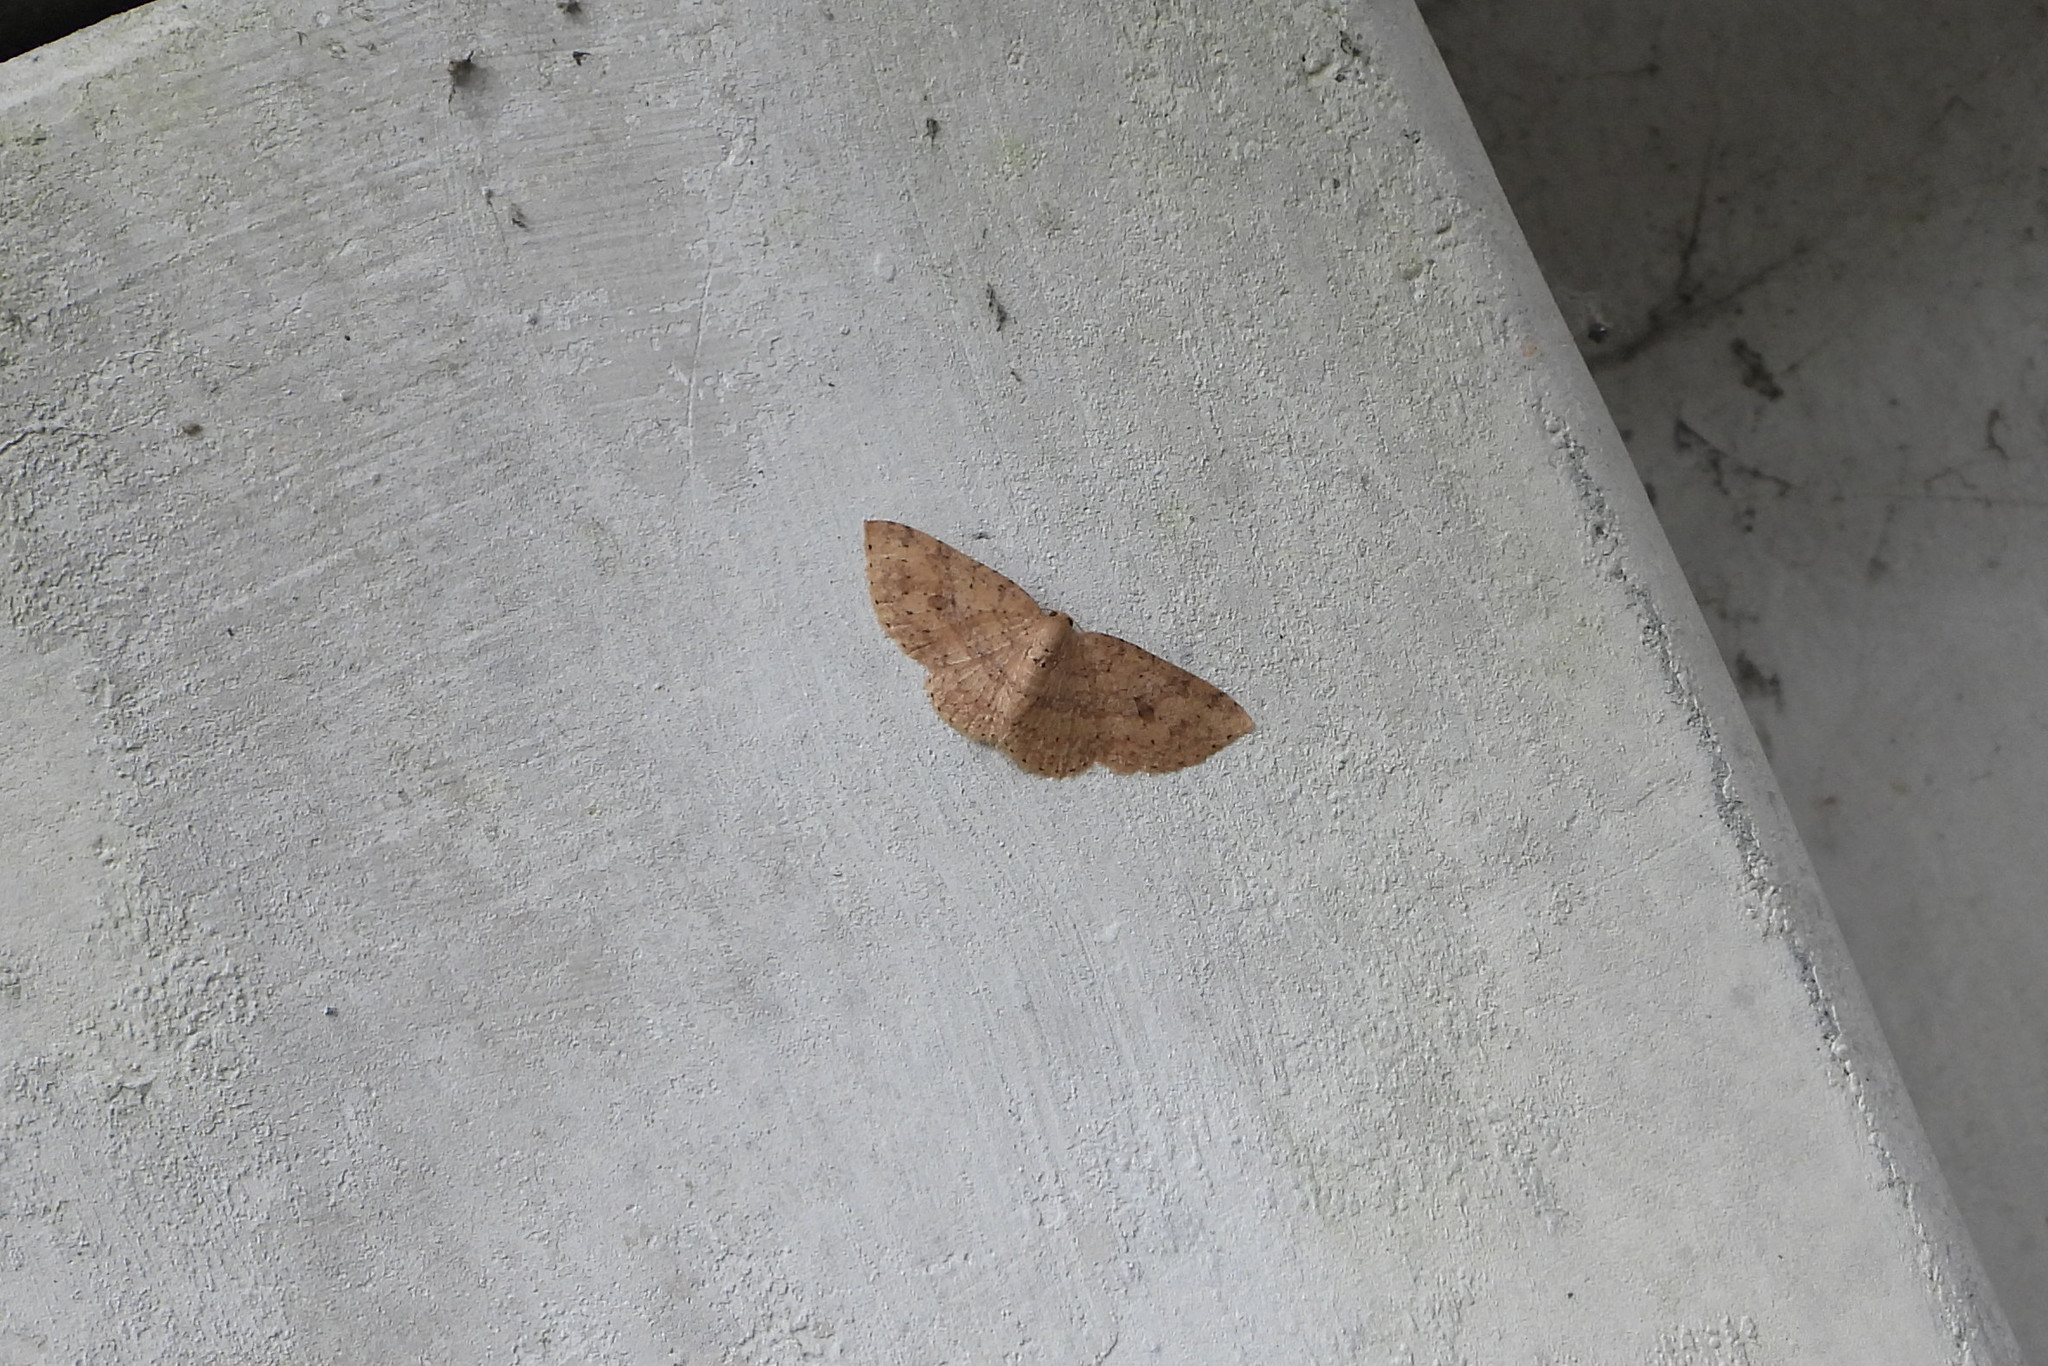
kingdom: Animalia
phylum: Arthropoda
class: Insecta
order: Lepidoptera
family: Geometridae
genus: Anydrelia
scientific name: Anydrelia distorta
